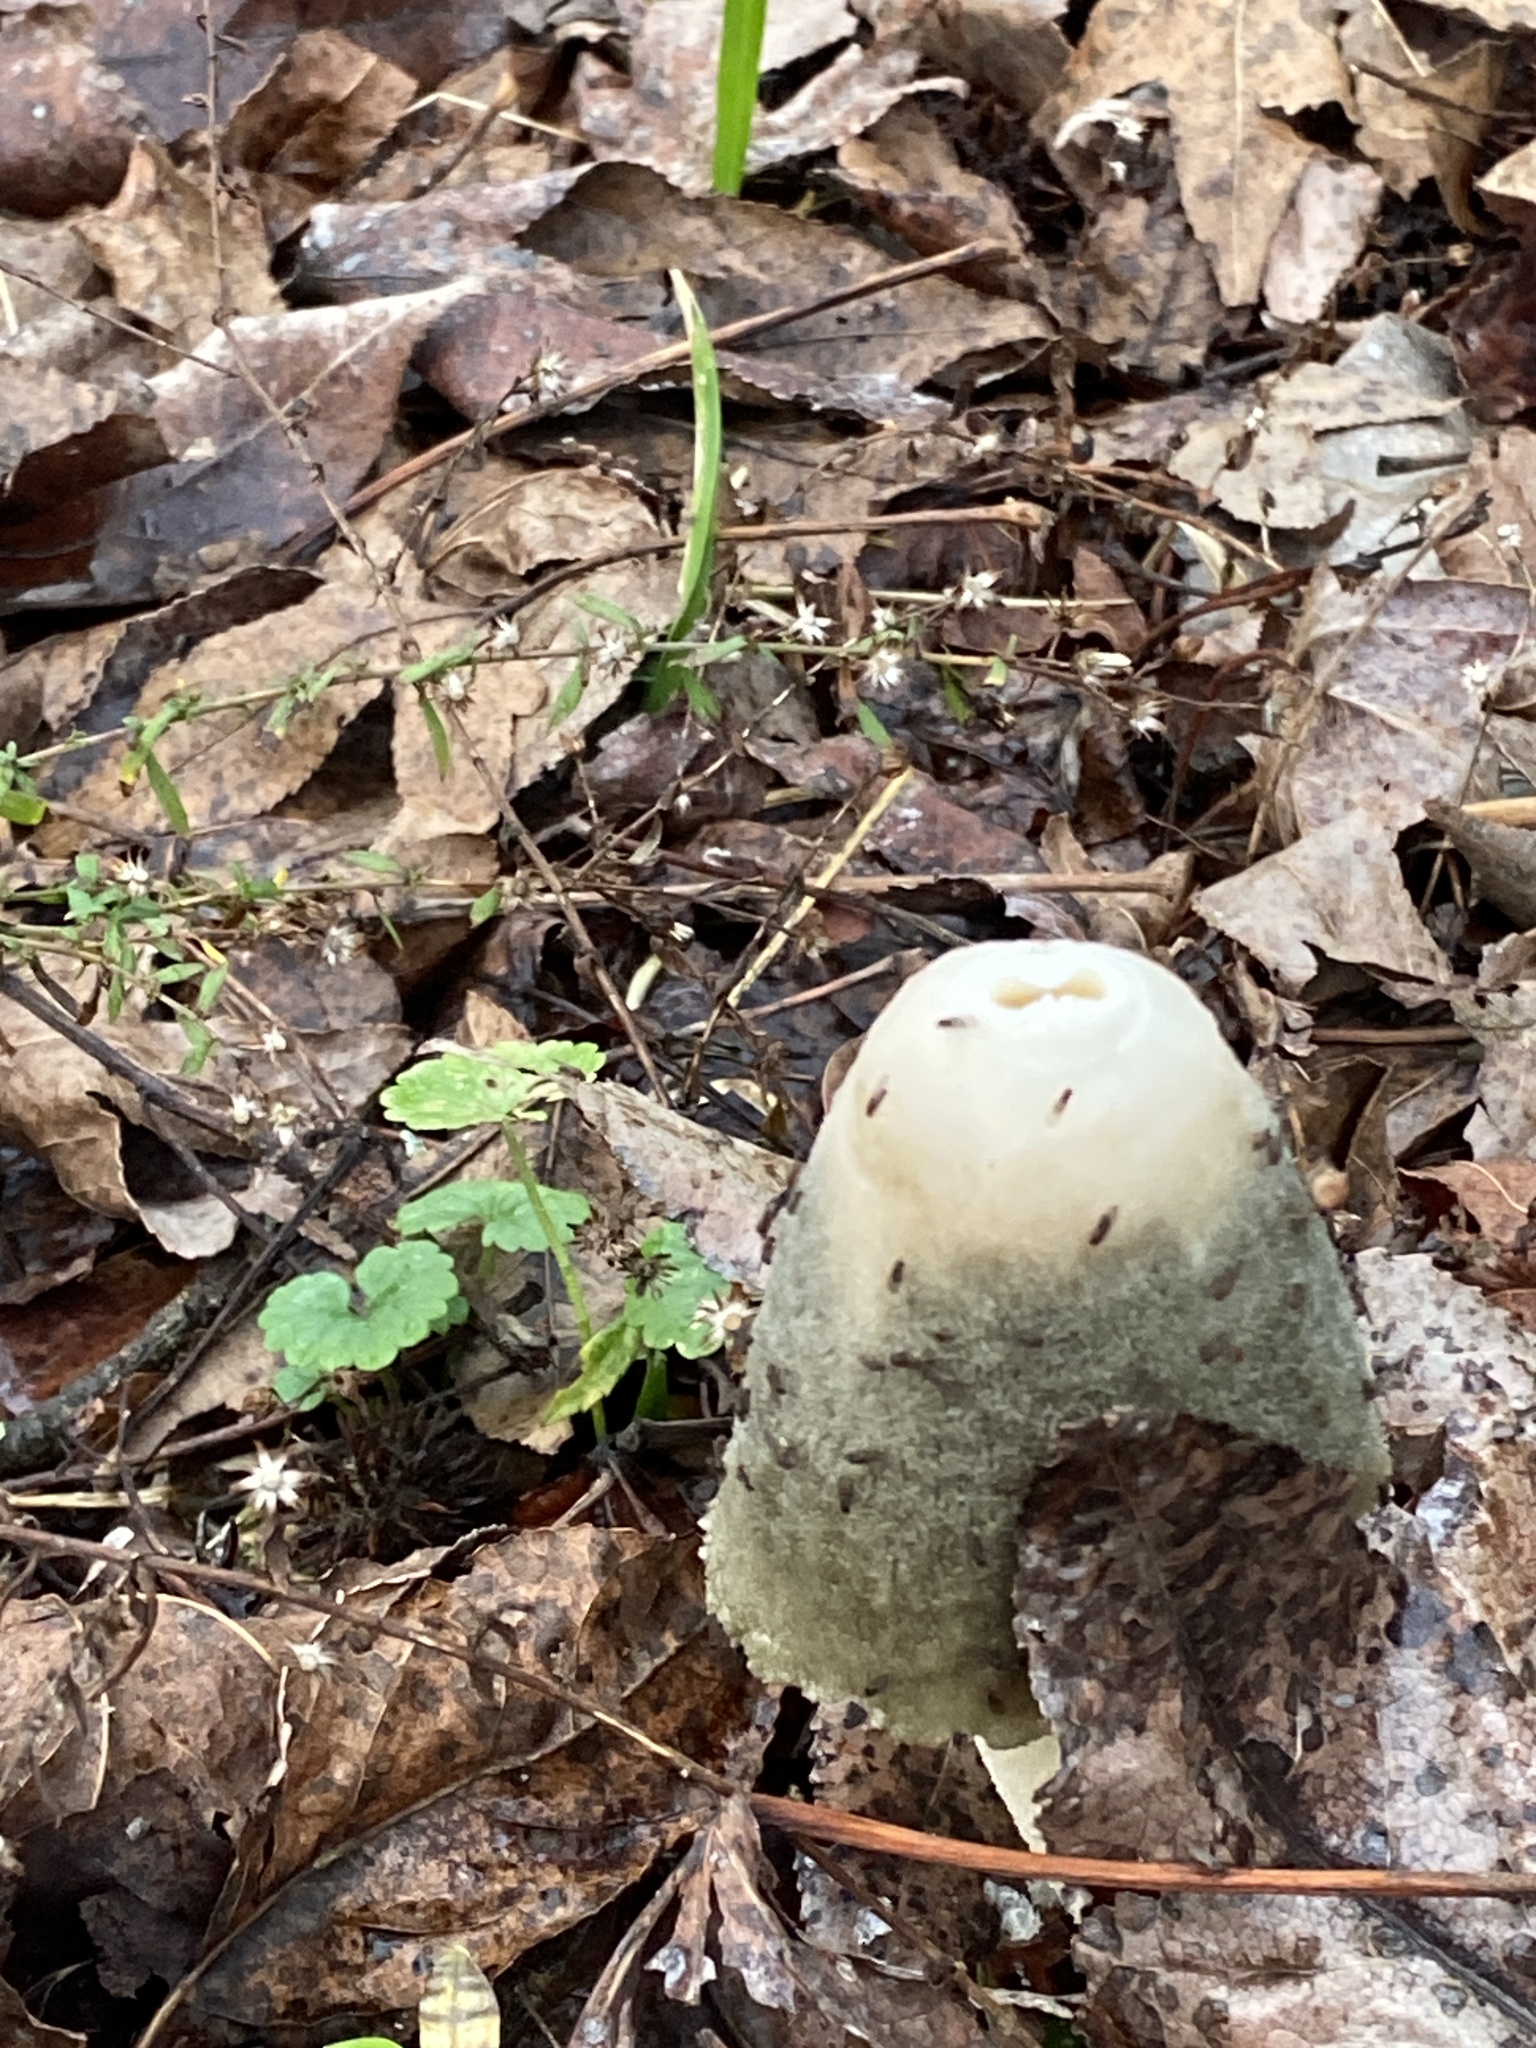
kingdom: Fungi
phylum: Basidiomycota
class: Agaricomycetes
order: Phallales
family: Phallaceae
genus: Phallus
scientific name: Phallus ravenelii
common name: Ravenel's stinkhorn
